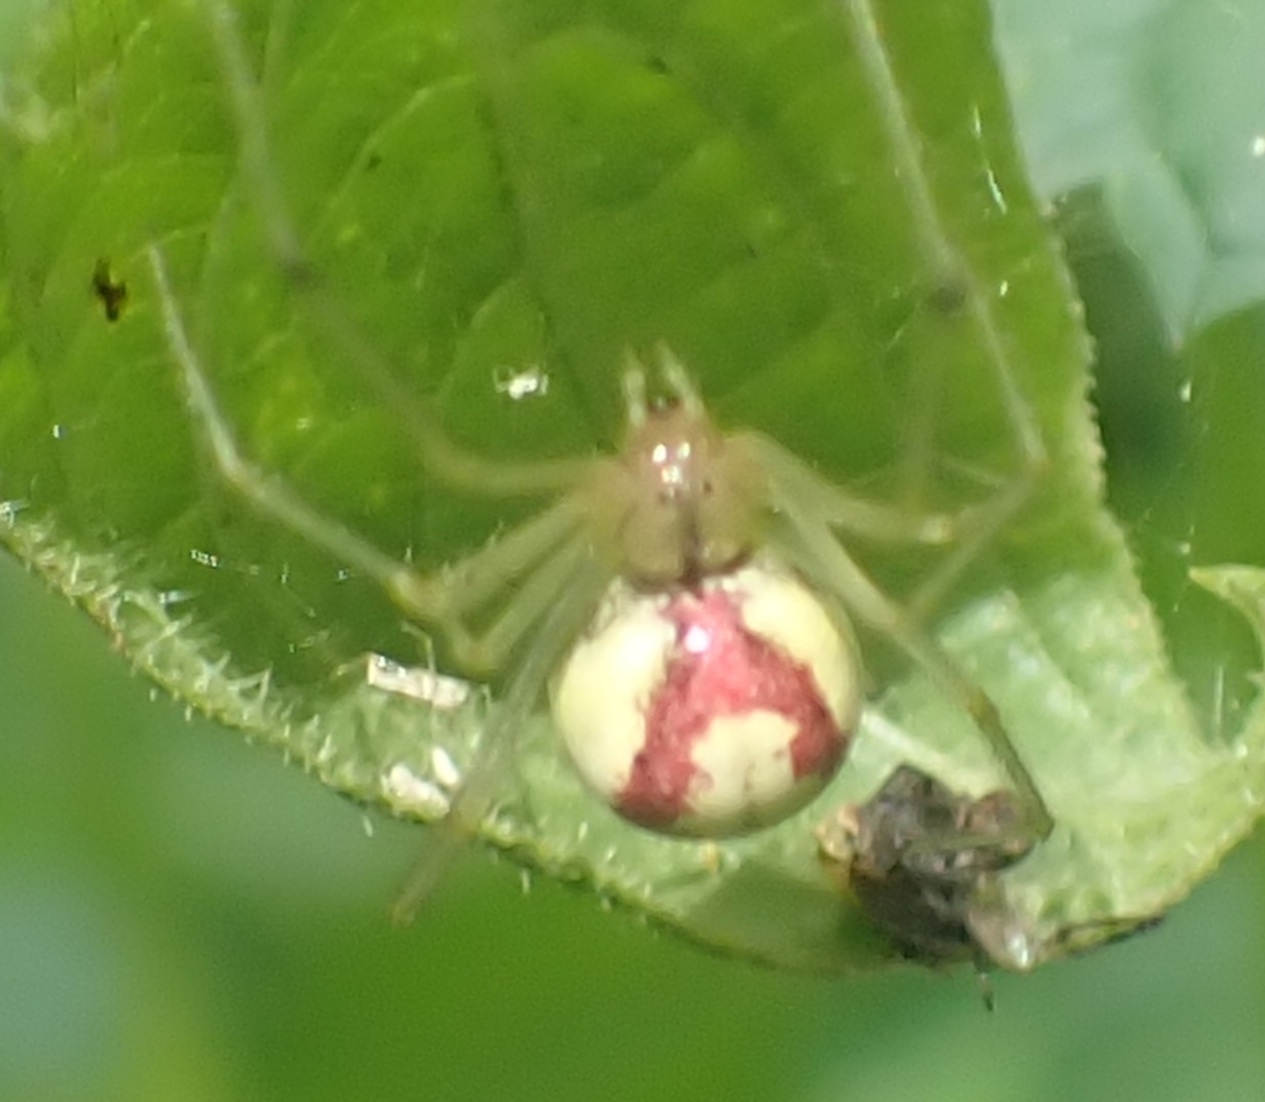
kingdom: Animalia
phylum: Arthropoda
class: Arachnida
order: Araneae
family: Theridiidae
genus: Enoplognatha
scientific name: Enoplognatha ovata
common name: Common candy-striped spider
